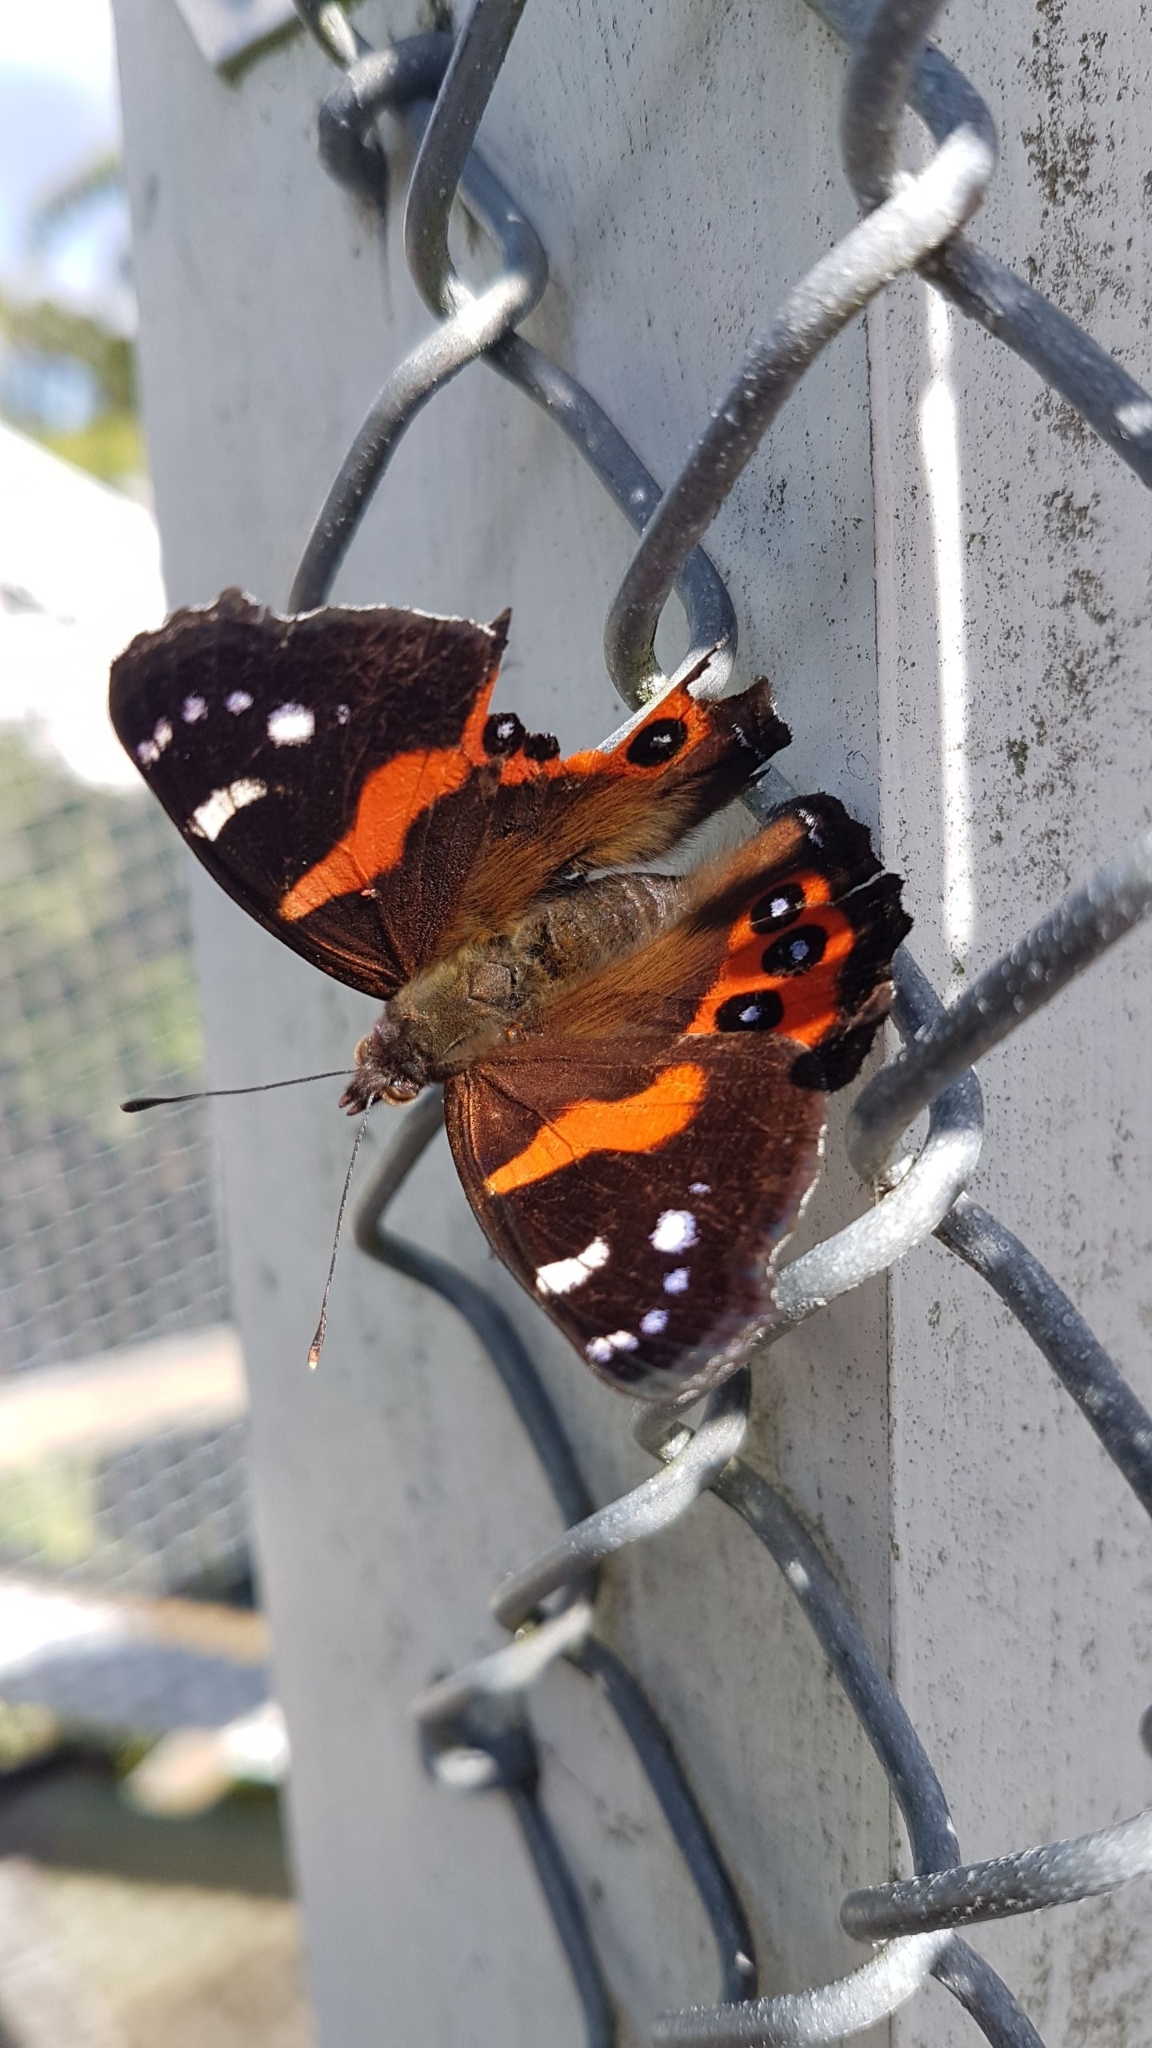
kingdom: Animalia
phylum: Arthropoda
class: Insecta
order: Lepidoptera
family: Nymphalidae
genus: Vanessa
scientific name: Vanessa gonerilla
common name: New zealand red admiral
